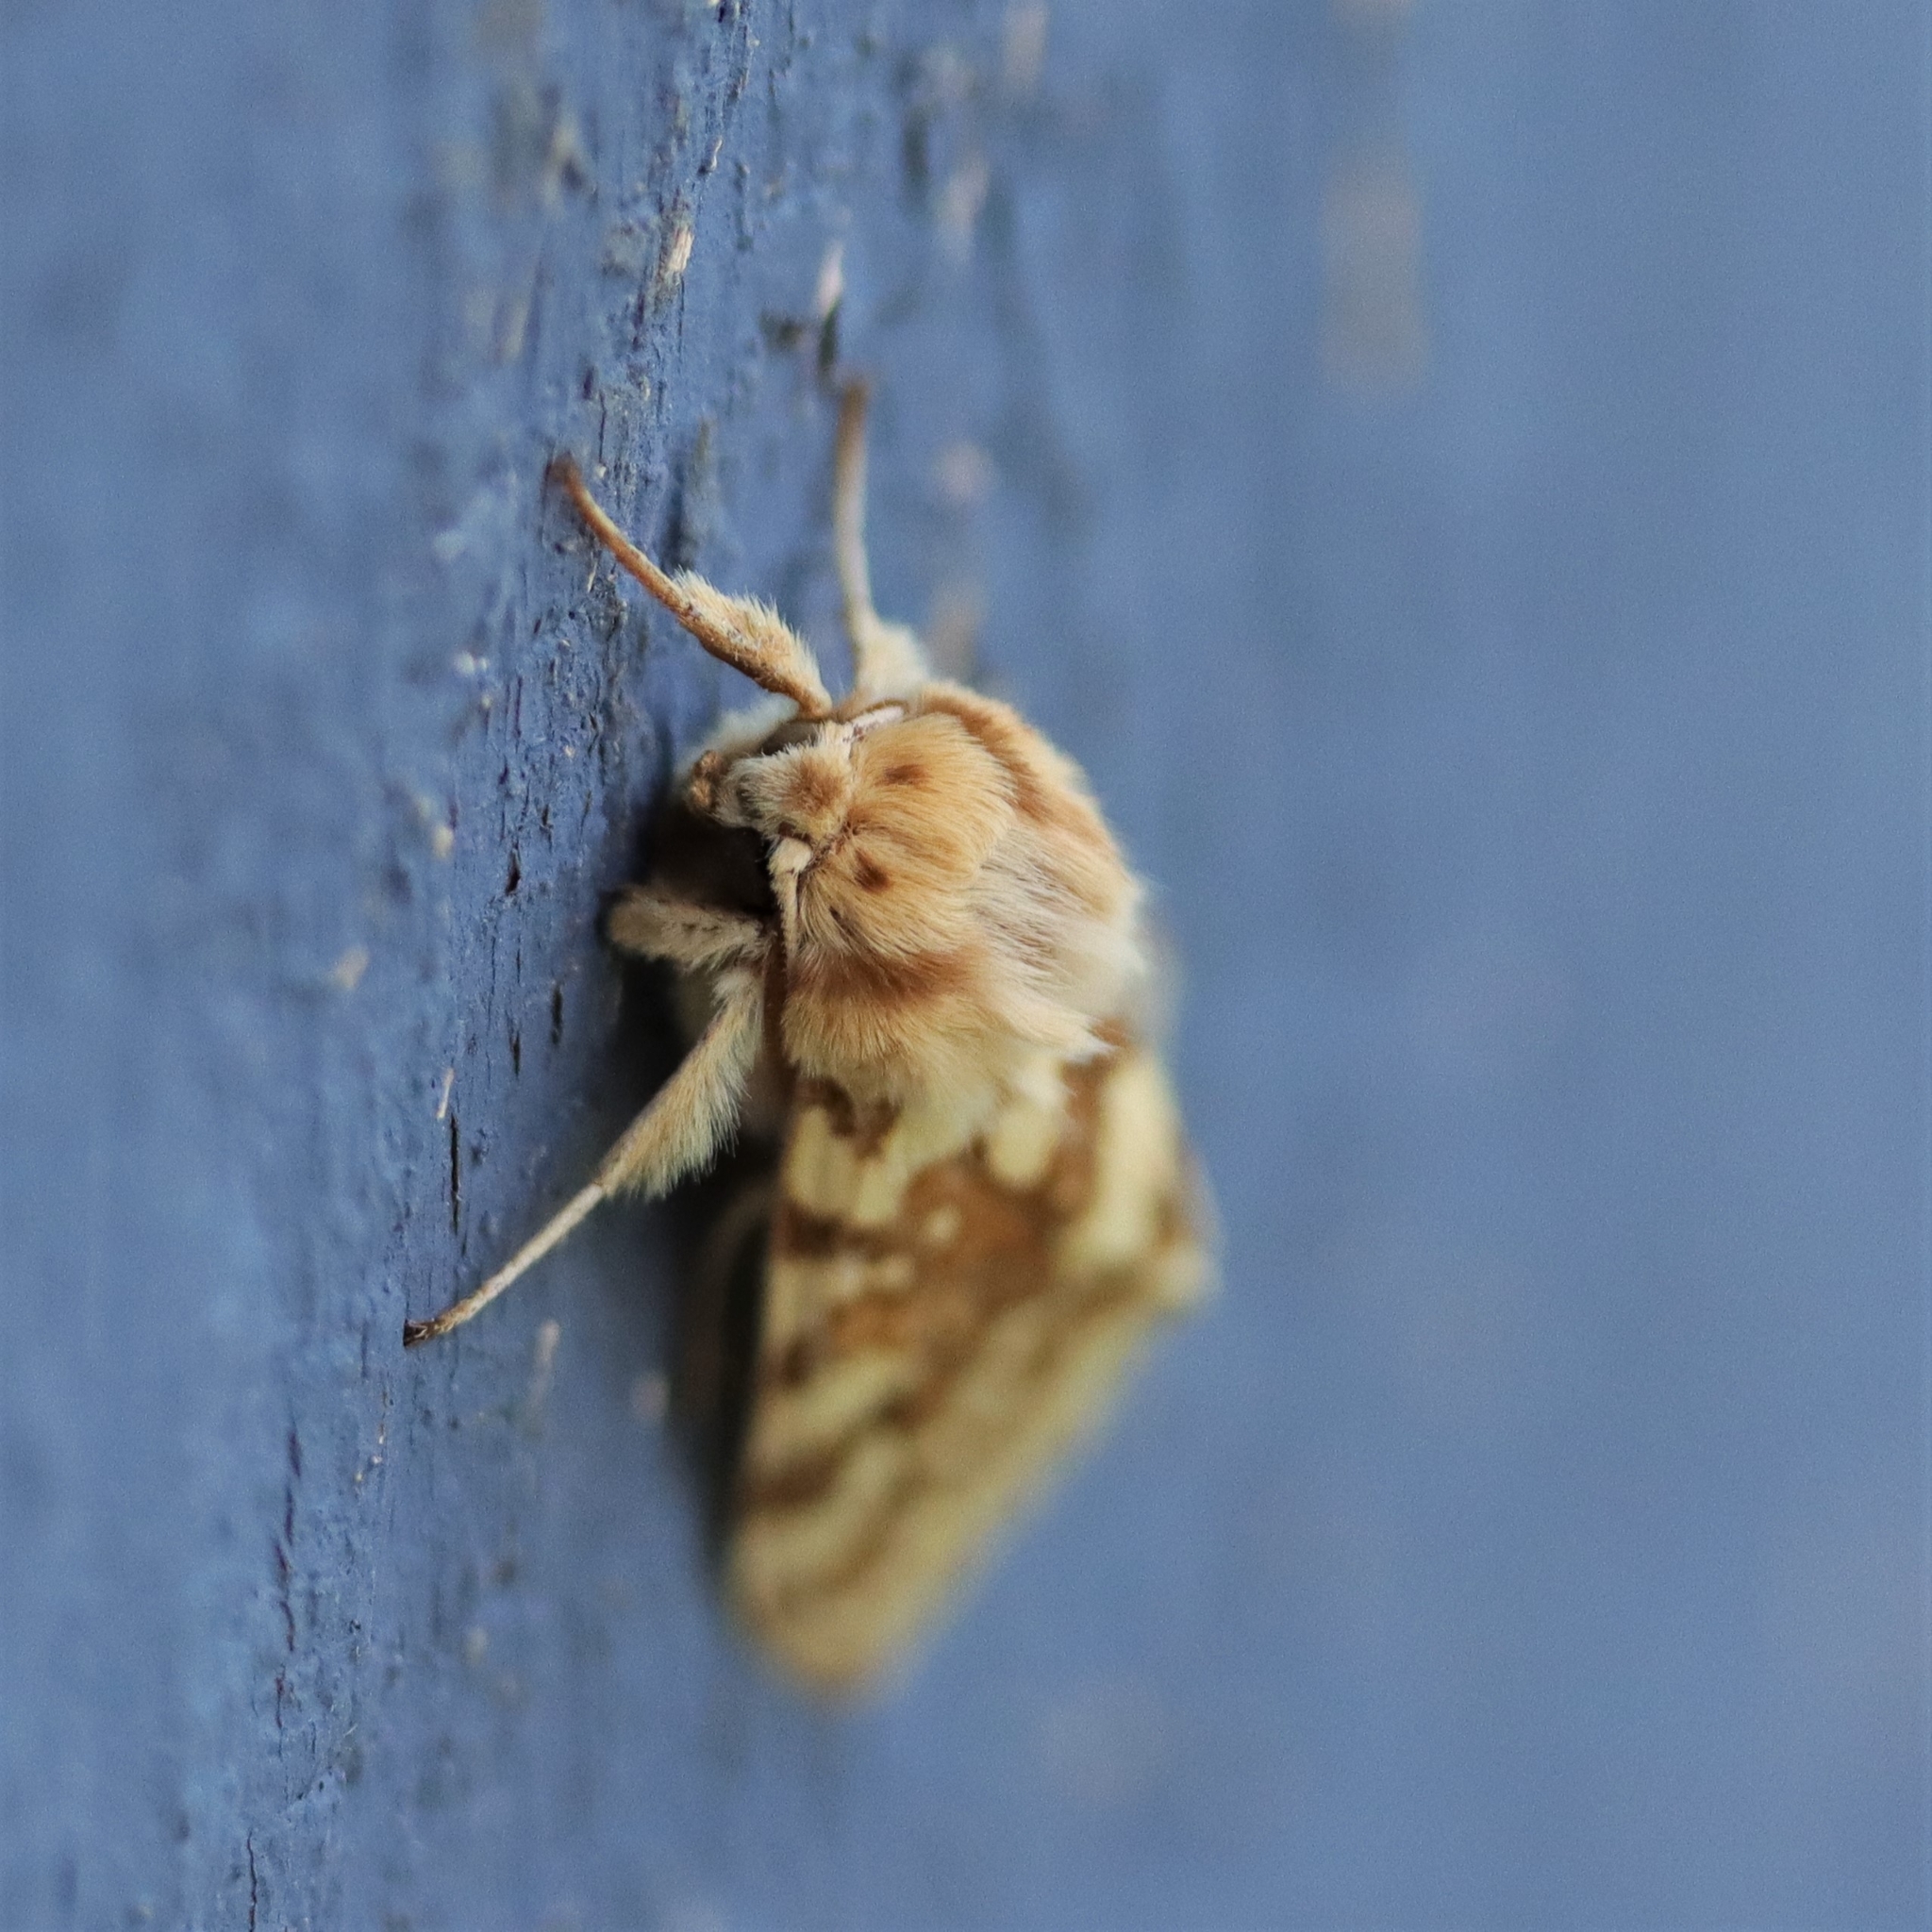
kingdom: Animalia
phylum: Arthropoda
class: Insecta
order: Lepidoptera
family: Erebidae
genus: Lophocampa
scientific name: Lophocampa maculata
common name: Spotted tussock moth
